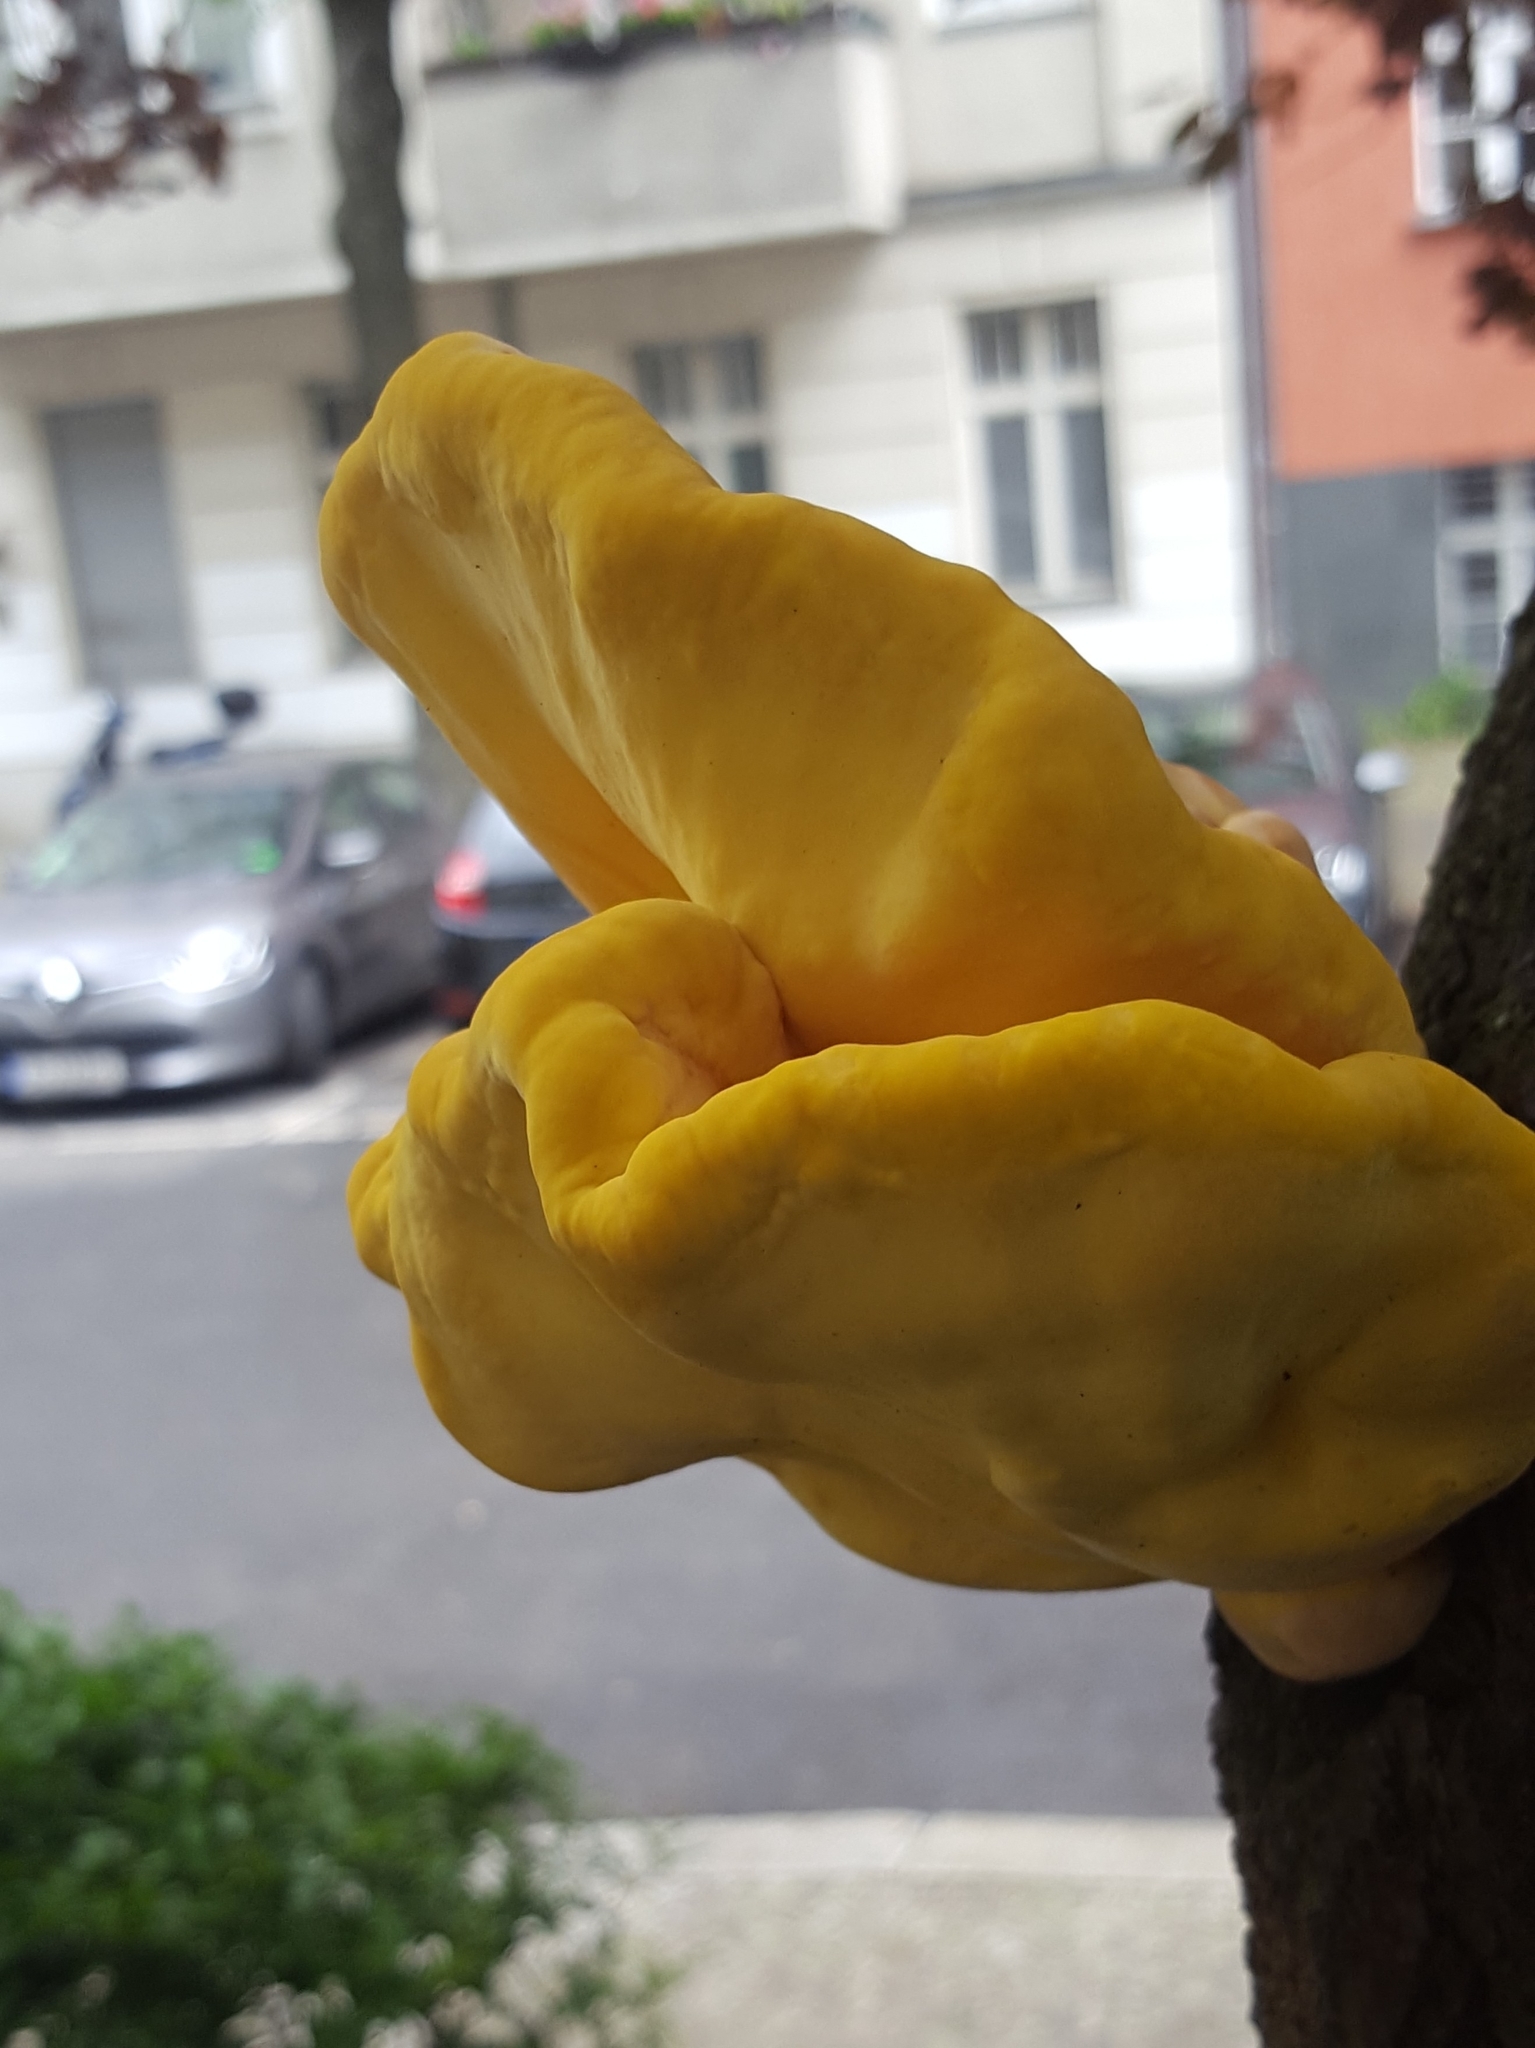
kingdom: Fungi
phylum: Basidiomycota
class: Agaricomycetes
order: Polyporales
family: Laetiporaceae
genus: Laetiporus
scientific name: Laetiporus sulphureus
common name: Chicken of the woods
